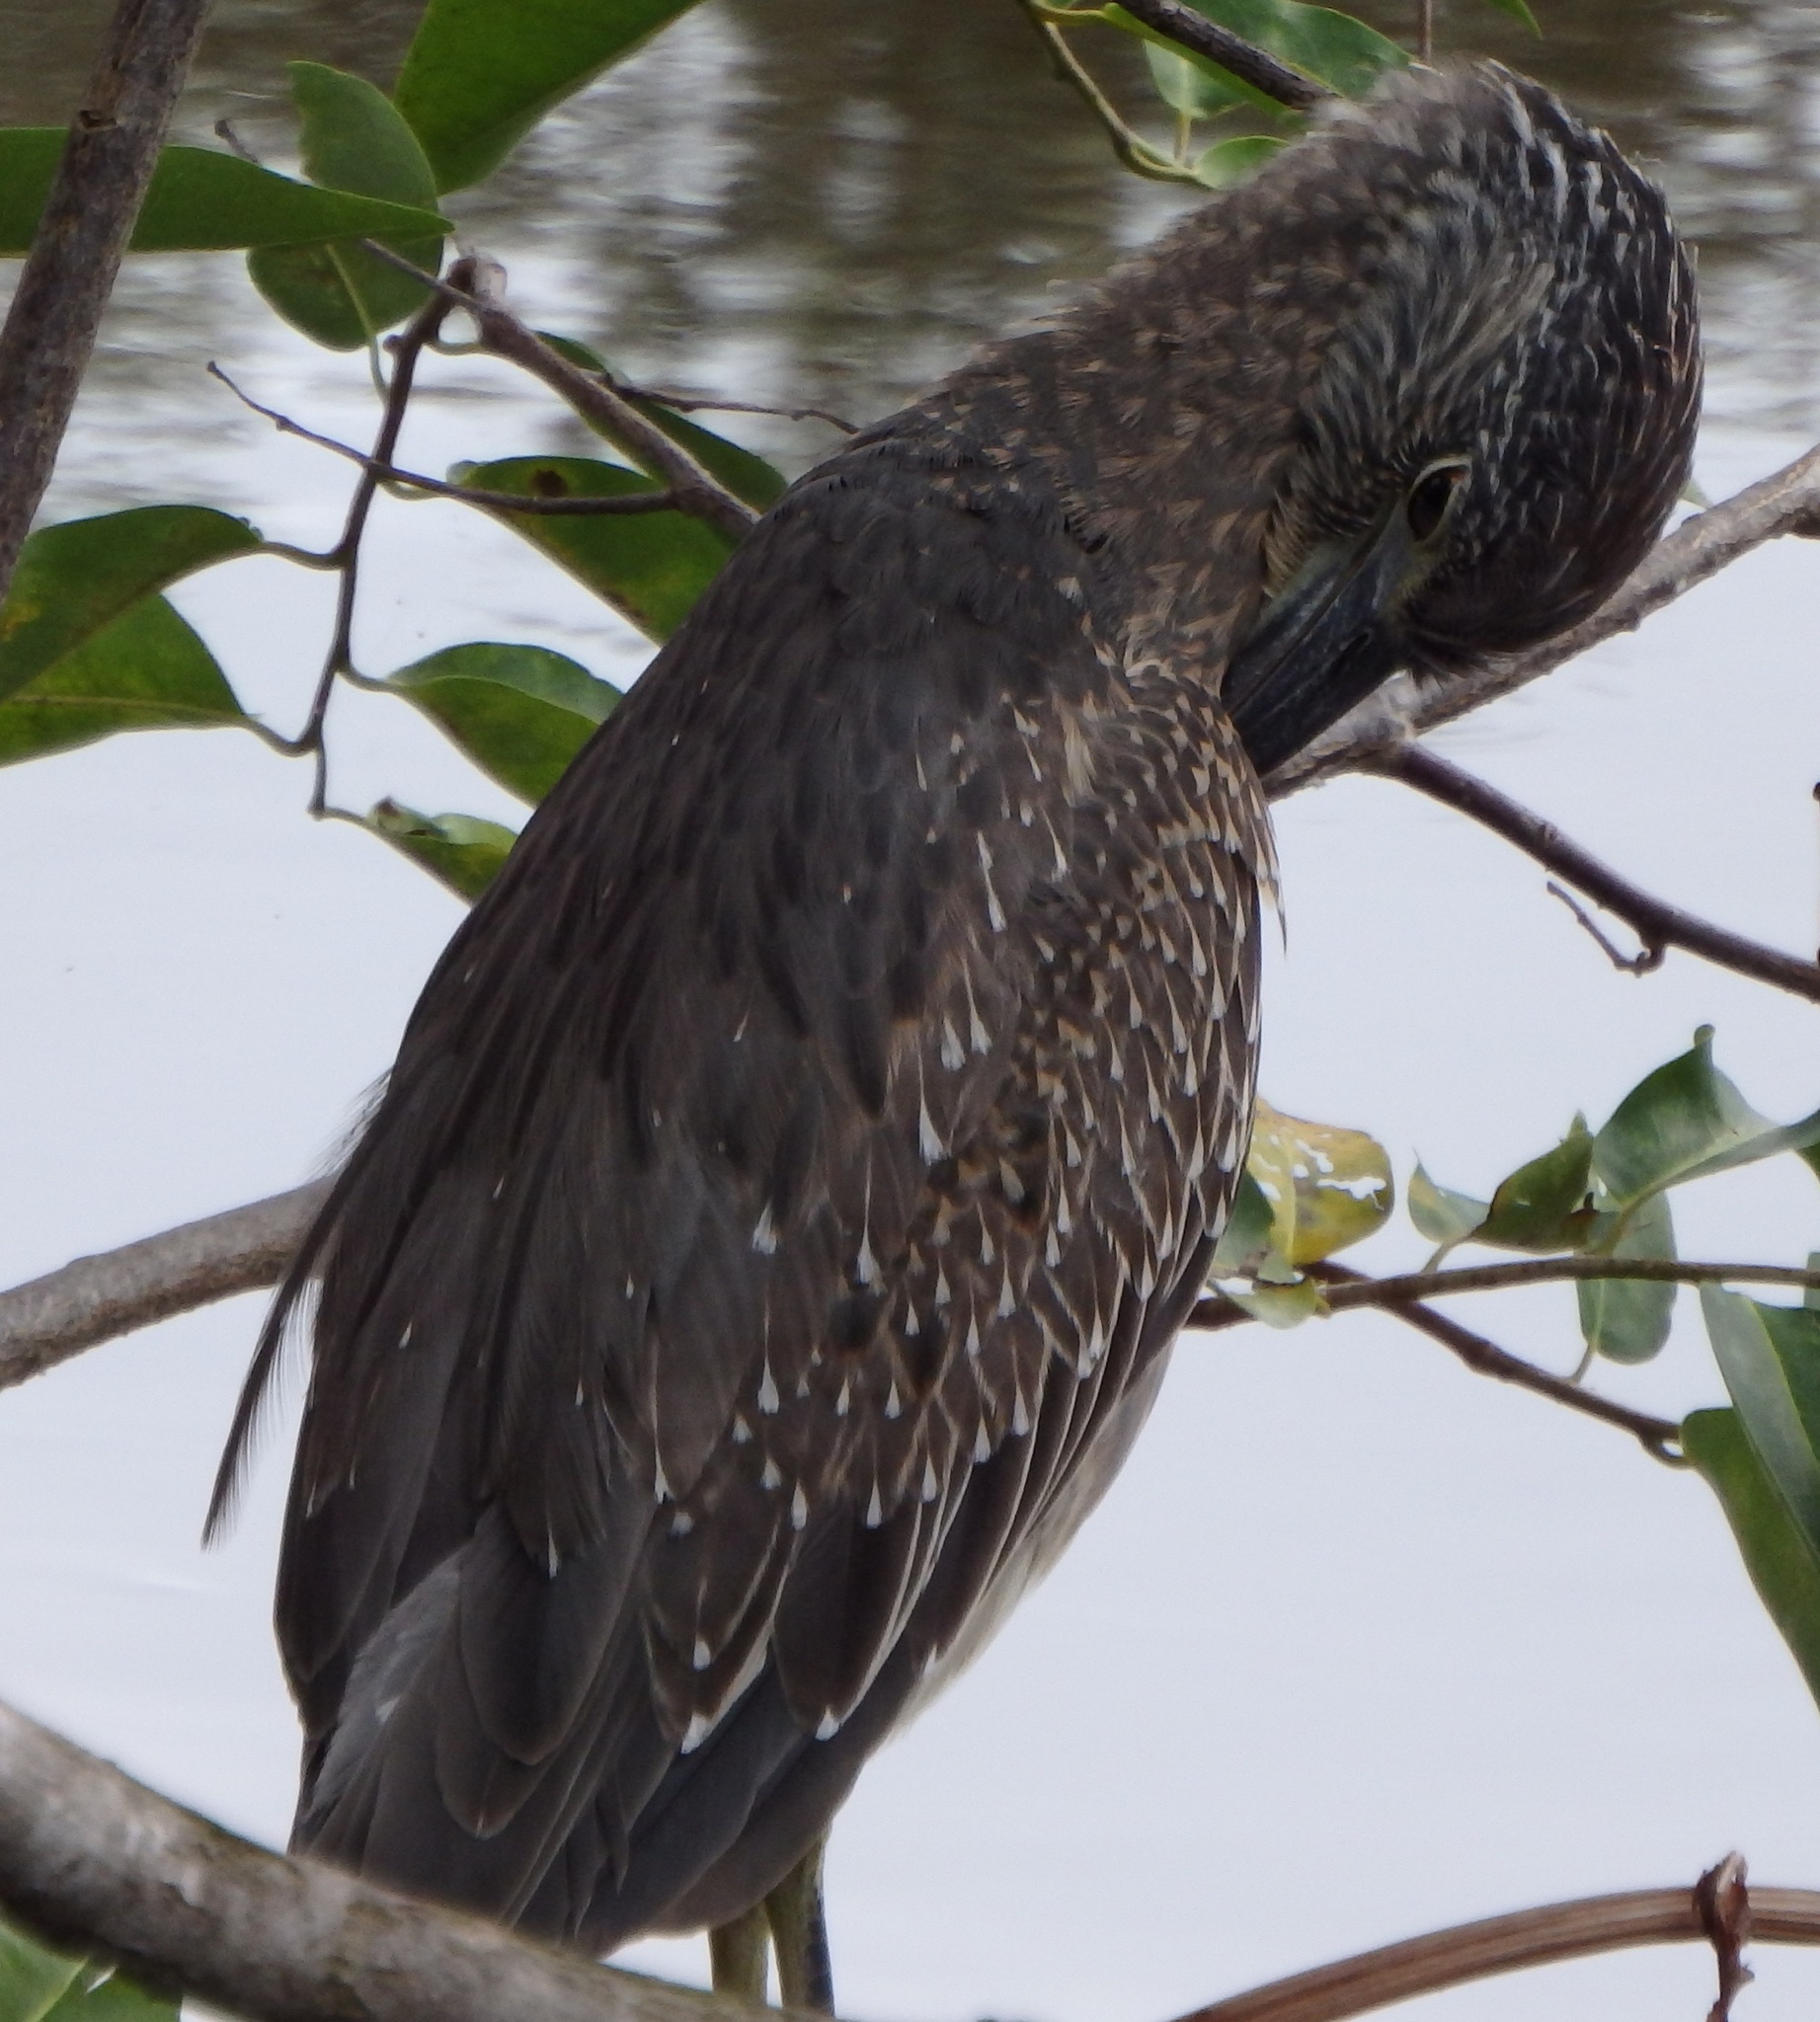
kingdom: Animalia
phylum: Chordata
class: Aves
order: Pelecaniformes
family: Ardeidae
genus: Nyctanassa
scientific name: Nyctanassa violacea
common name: Yellow-crowned night heron
